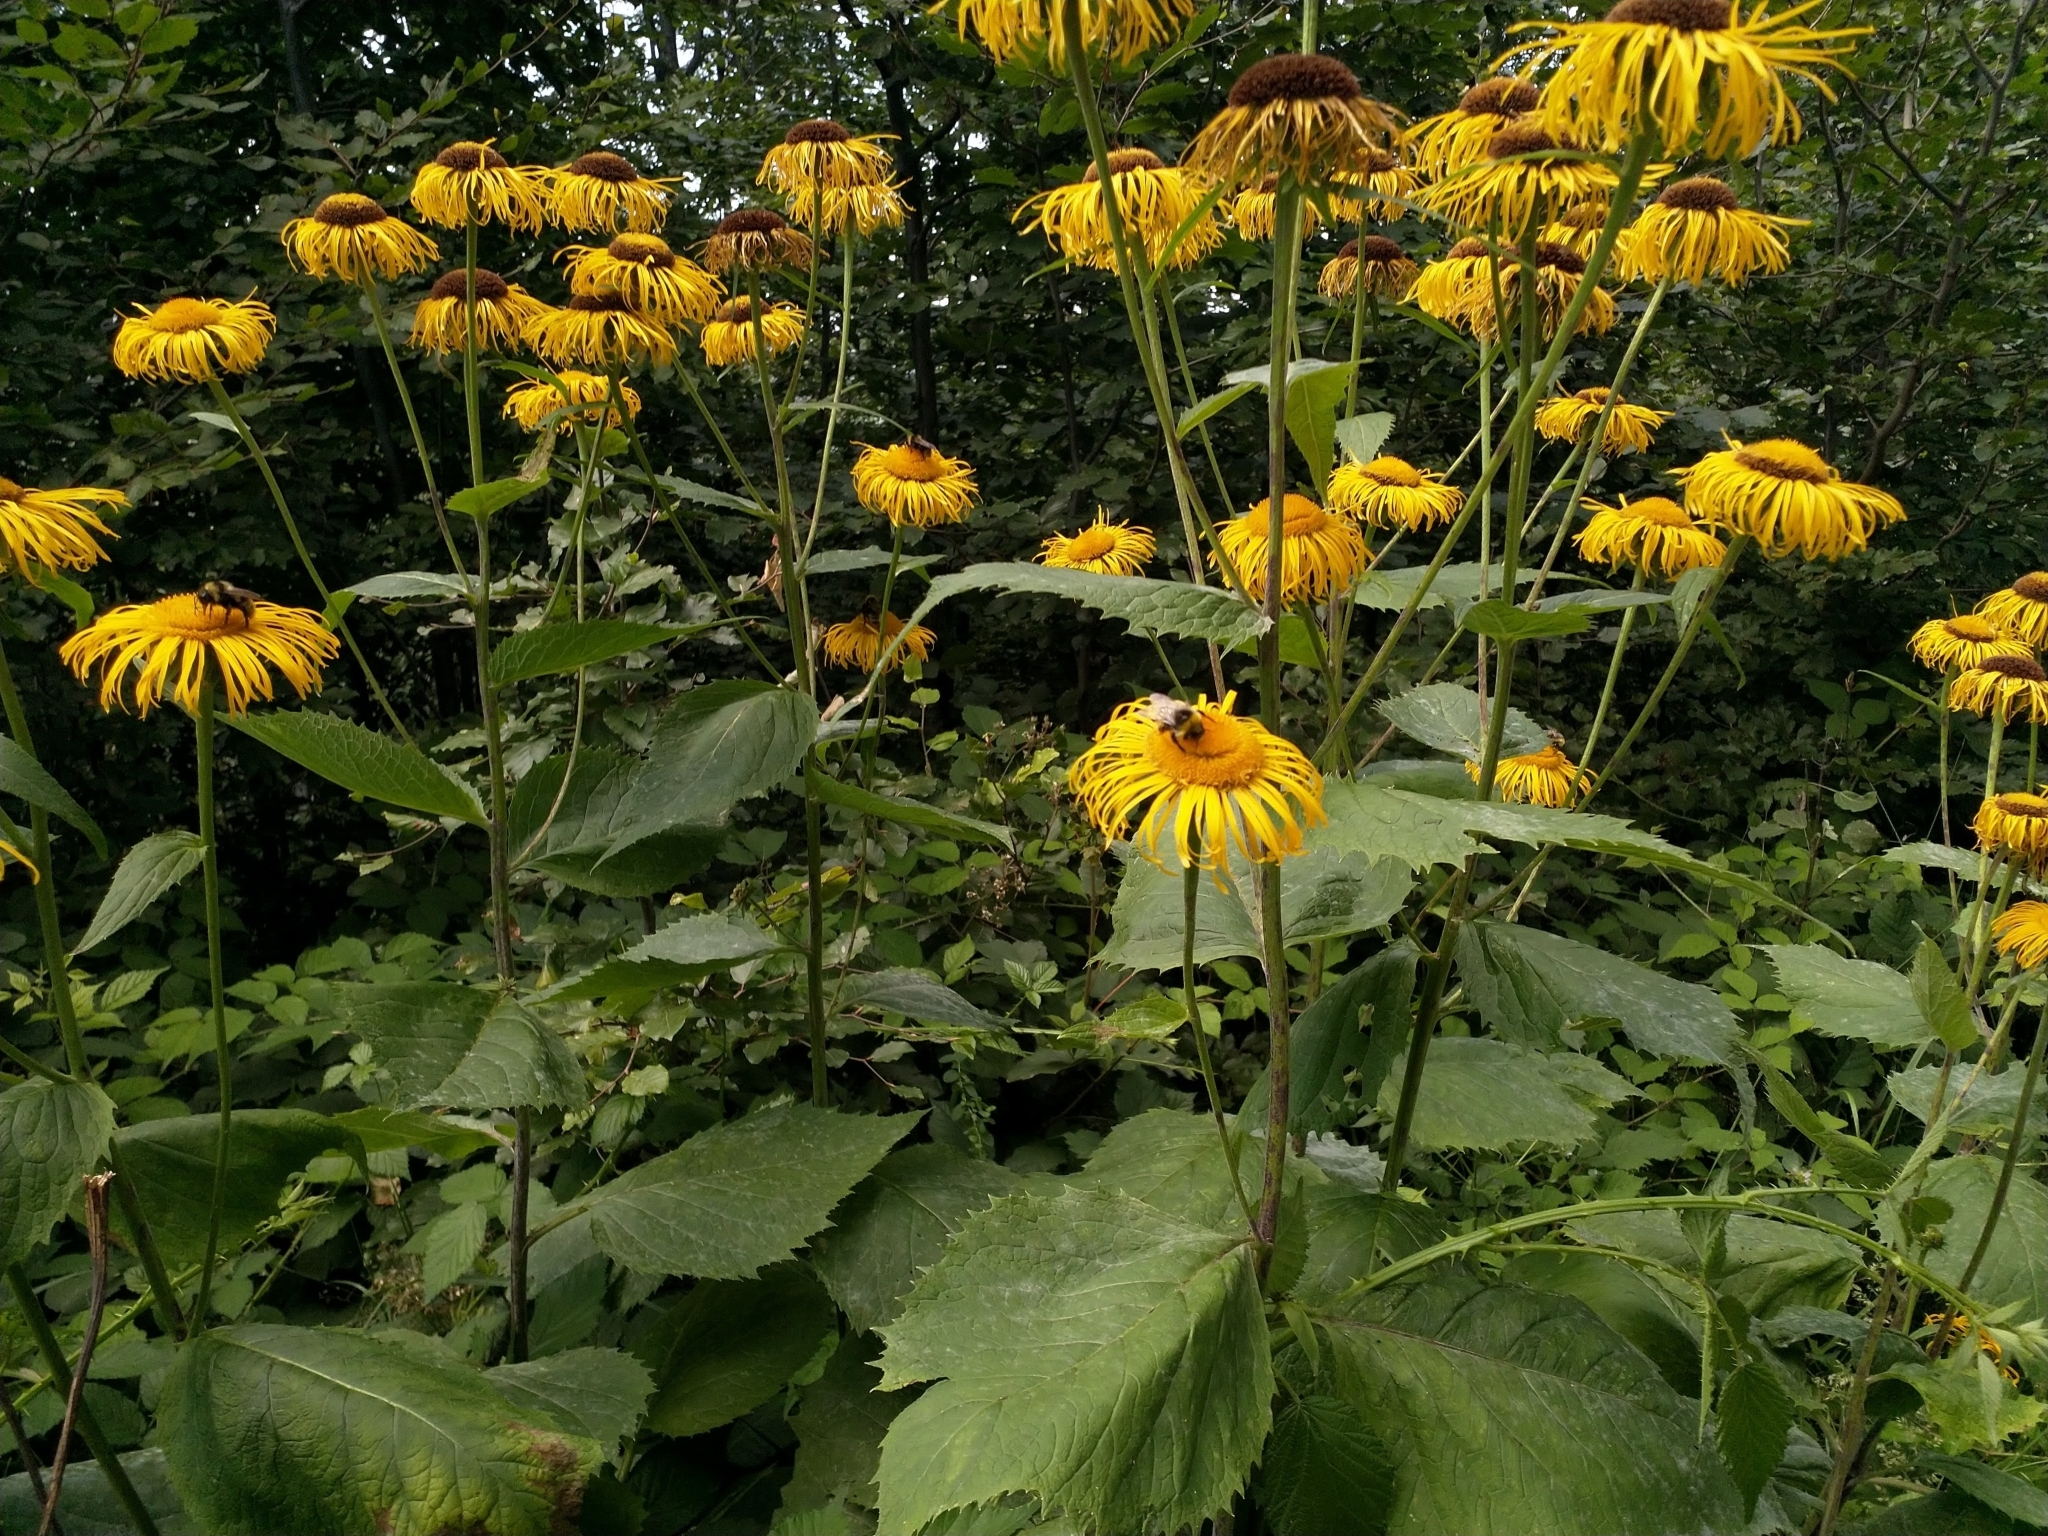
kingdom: Plantae
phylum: Tracheophyta
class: Magnoliopsida
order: Asterales
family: Asteraceae
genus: Telekia
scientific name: Telekia speciosa
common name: Yellow oxeye
